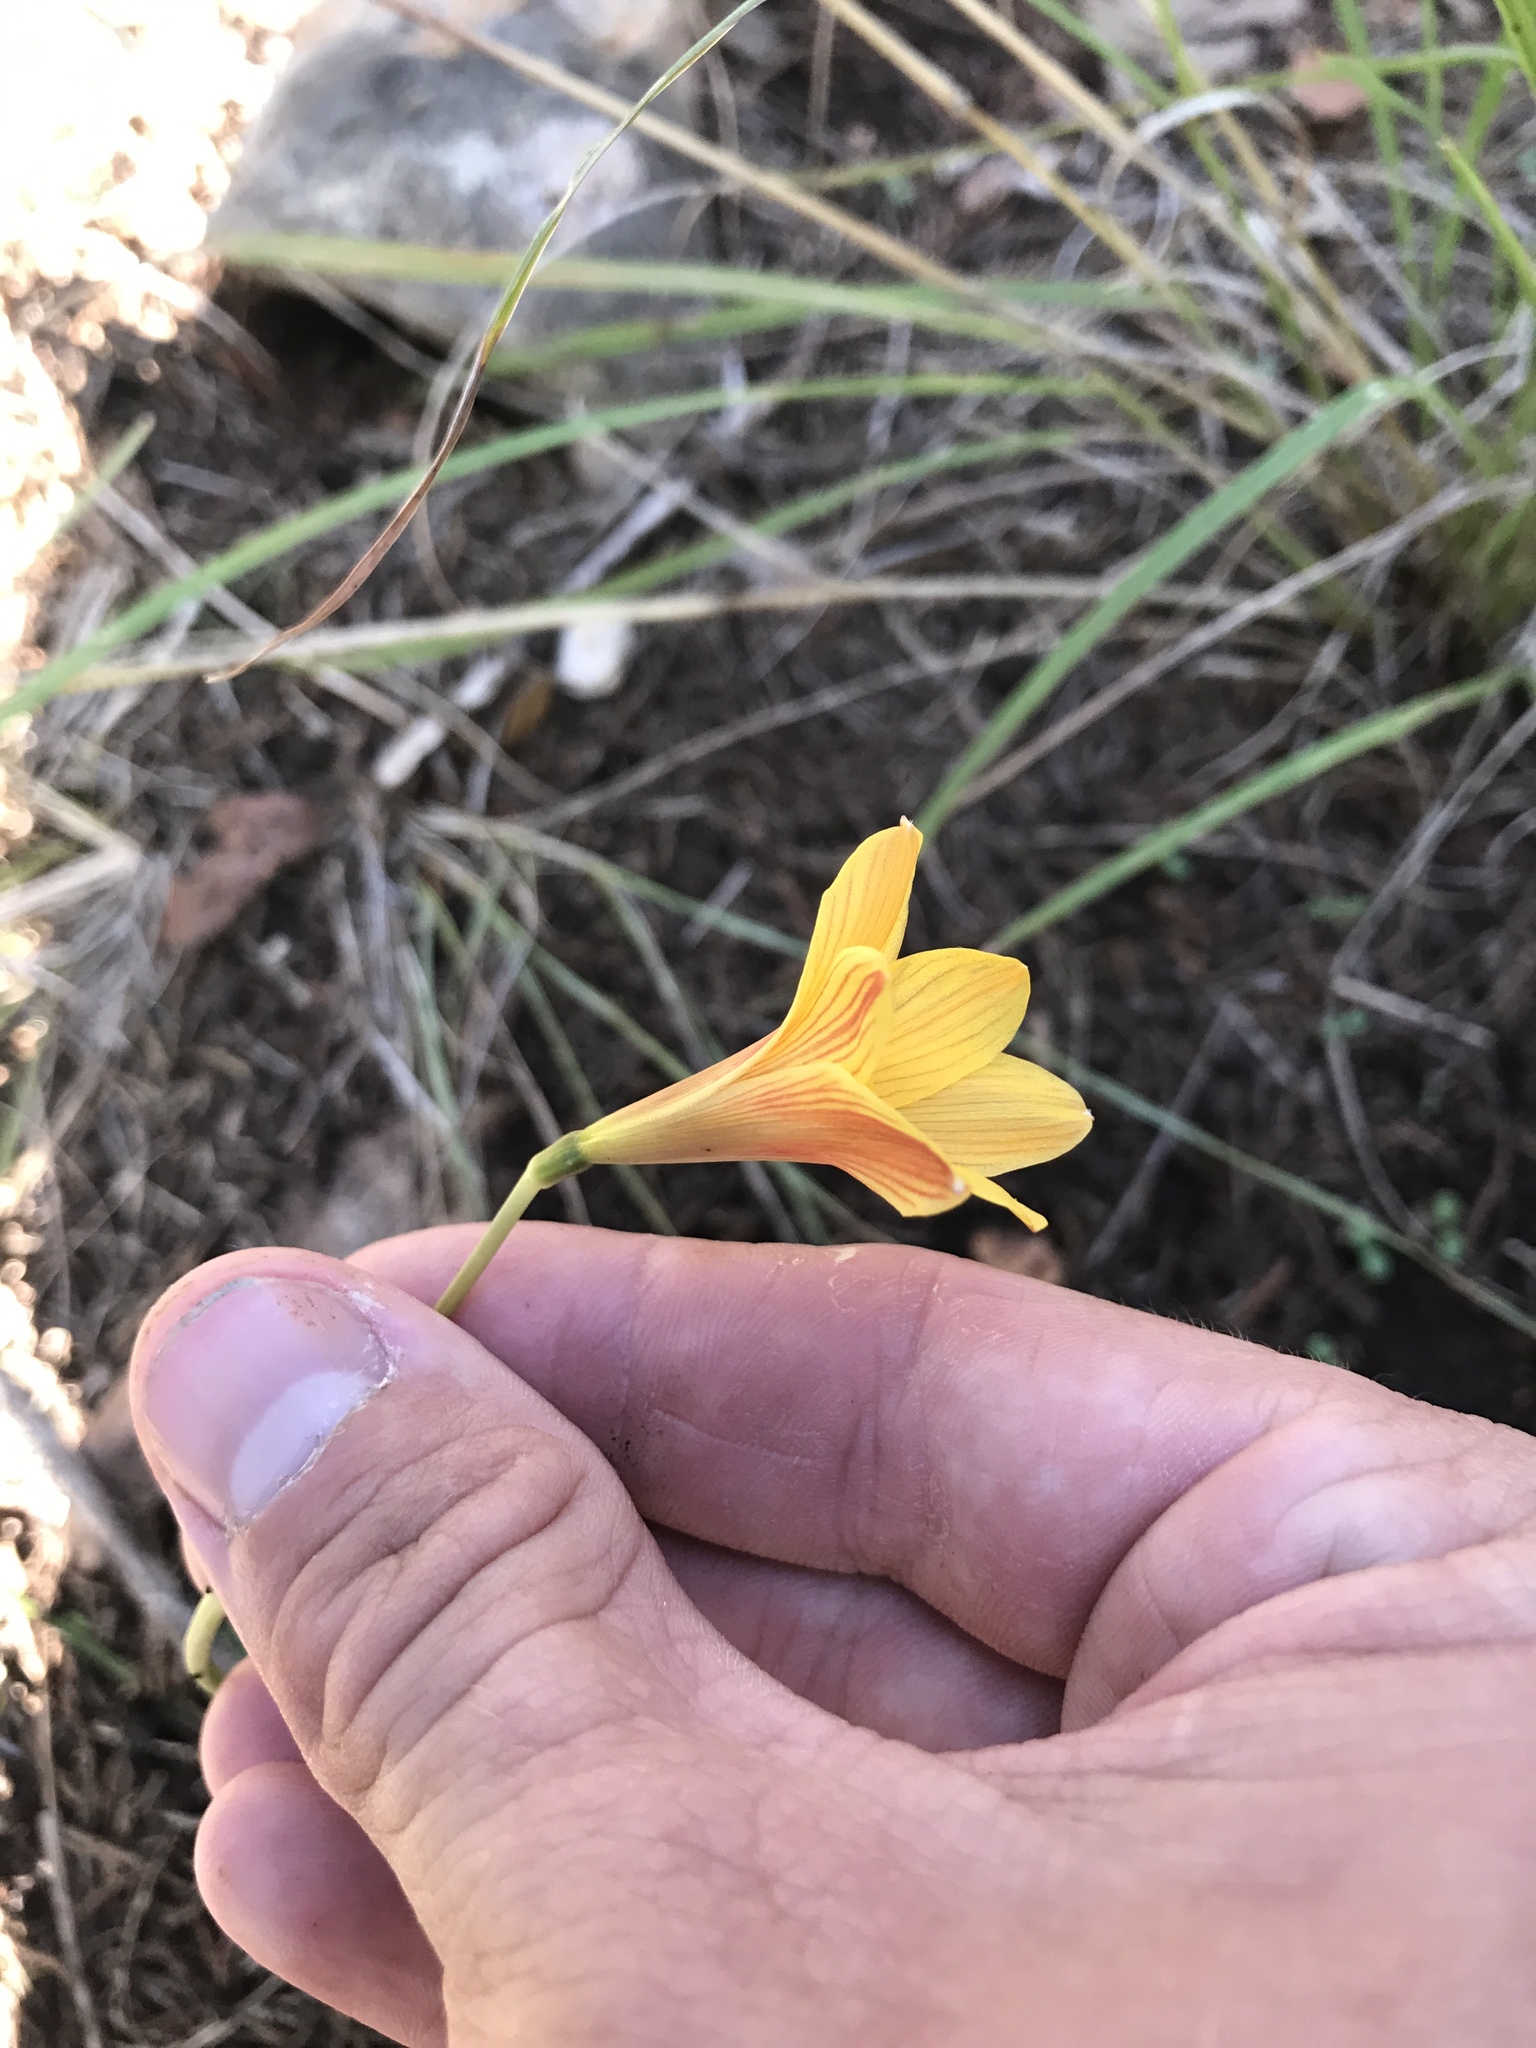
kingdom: Plantae
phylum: Tracheophyta
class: Liliopsida
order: Asparagales
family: Amaryllidaceae
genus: Zephyranthes
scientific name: Zephyranthes tubispatha
